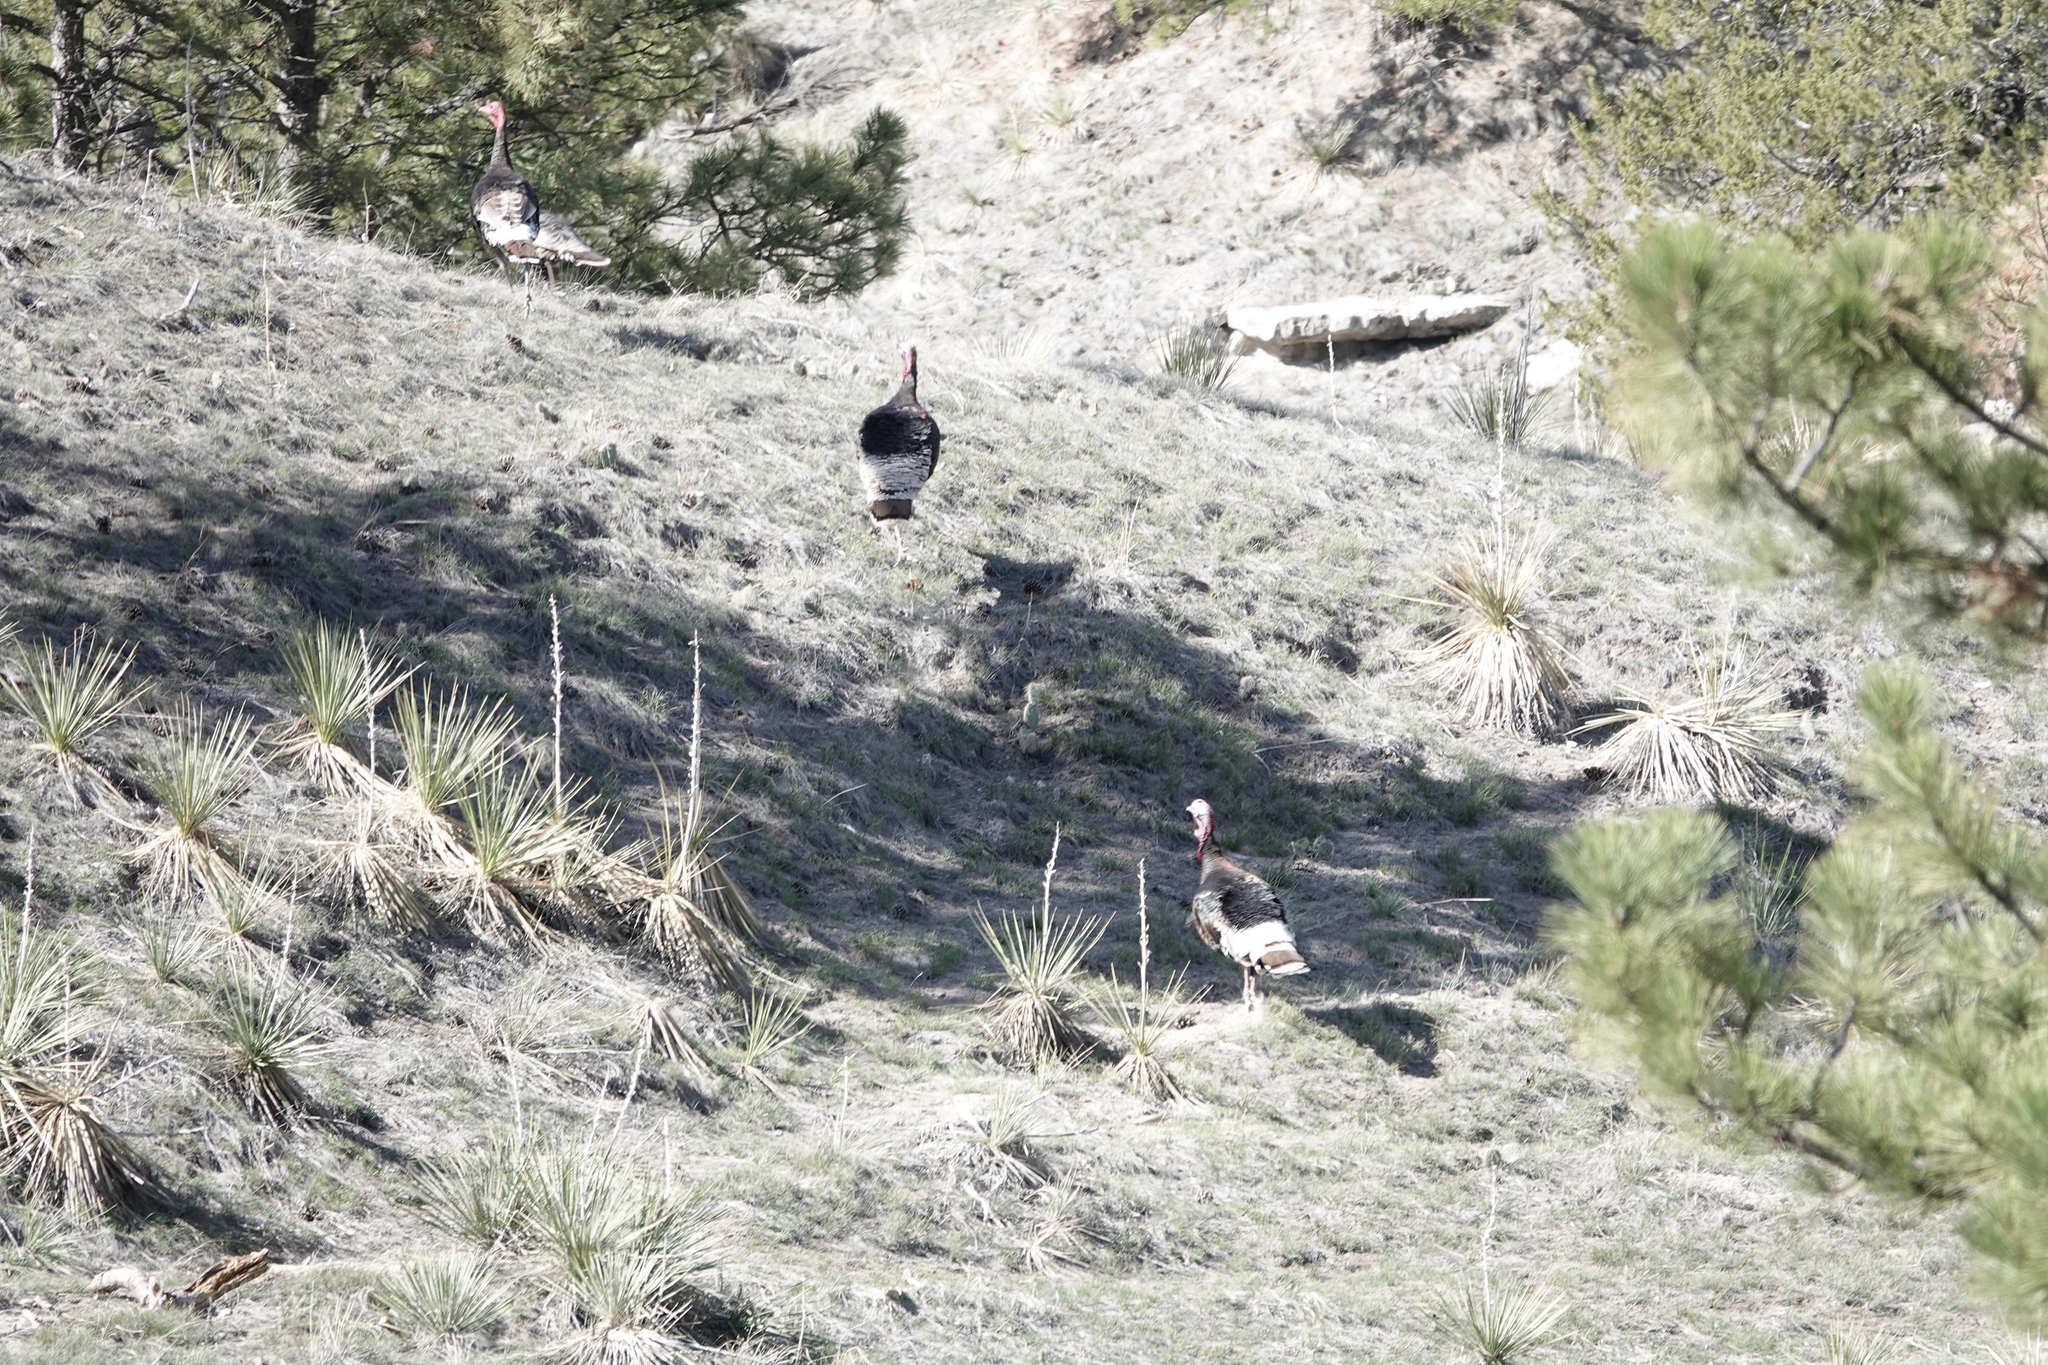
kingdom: Animalia
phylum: Chordata
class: Aves
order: Galliformes
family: Phasianidae
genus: Meleagris
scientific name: Meleagris gallopavo
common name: Wild turkey
